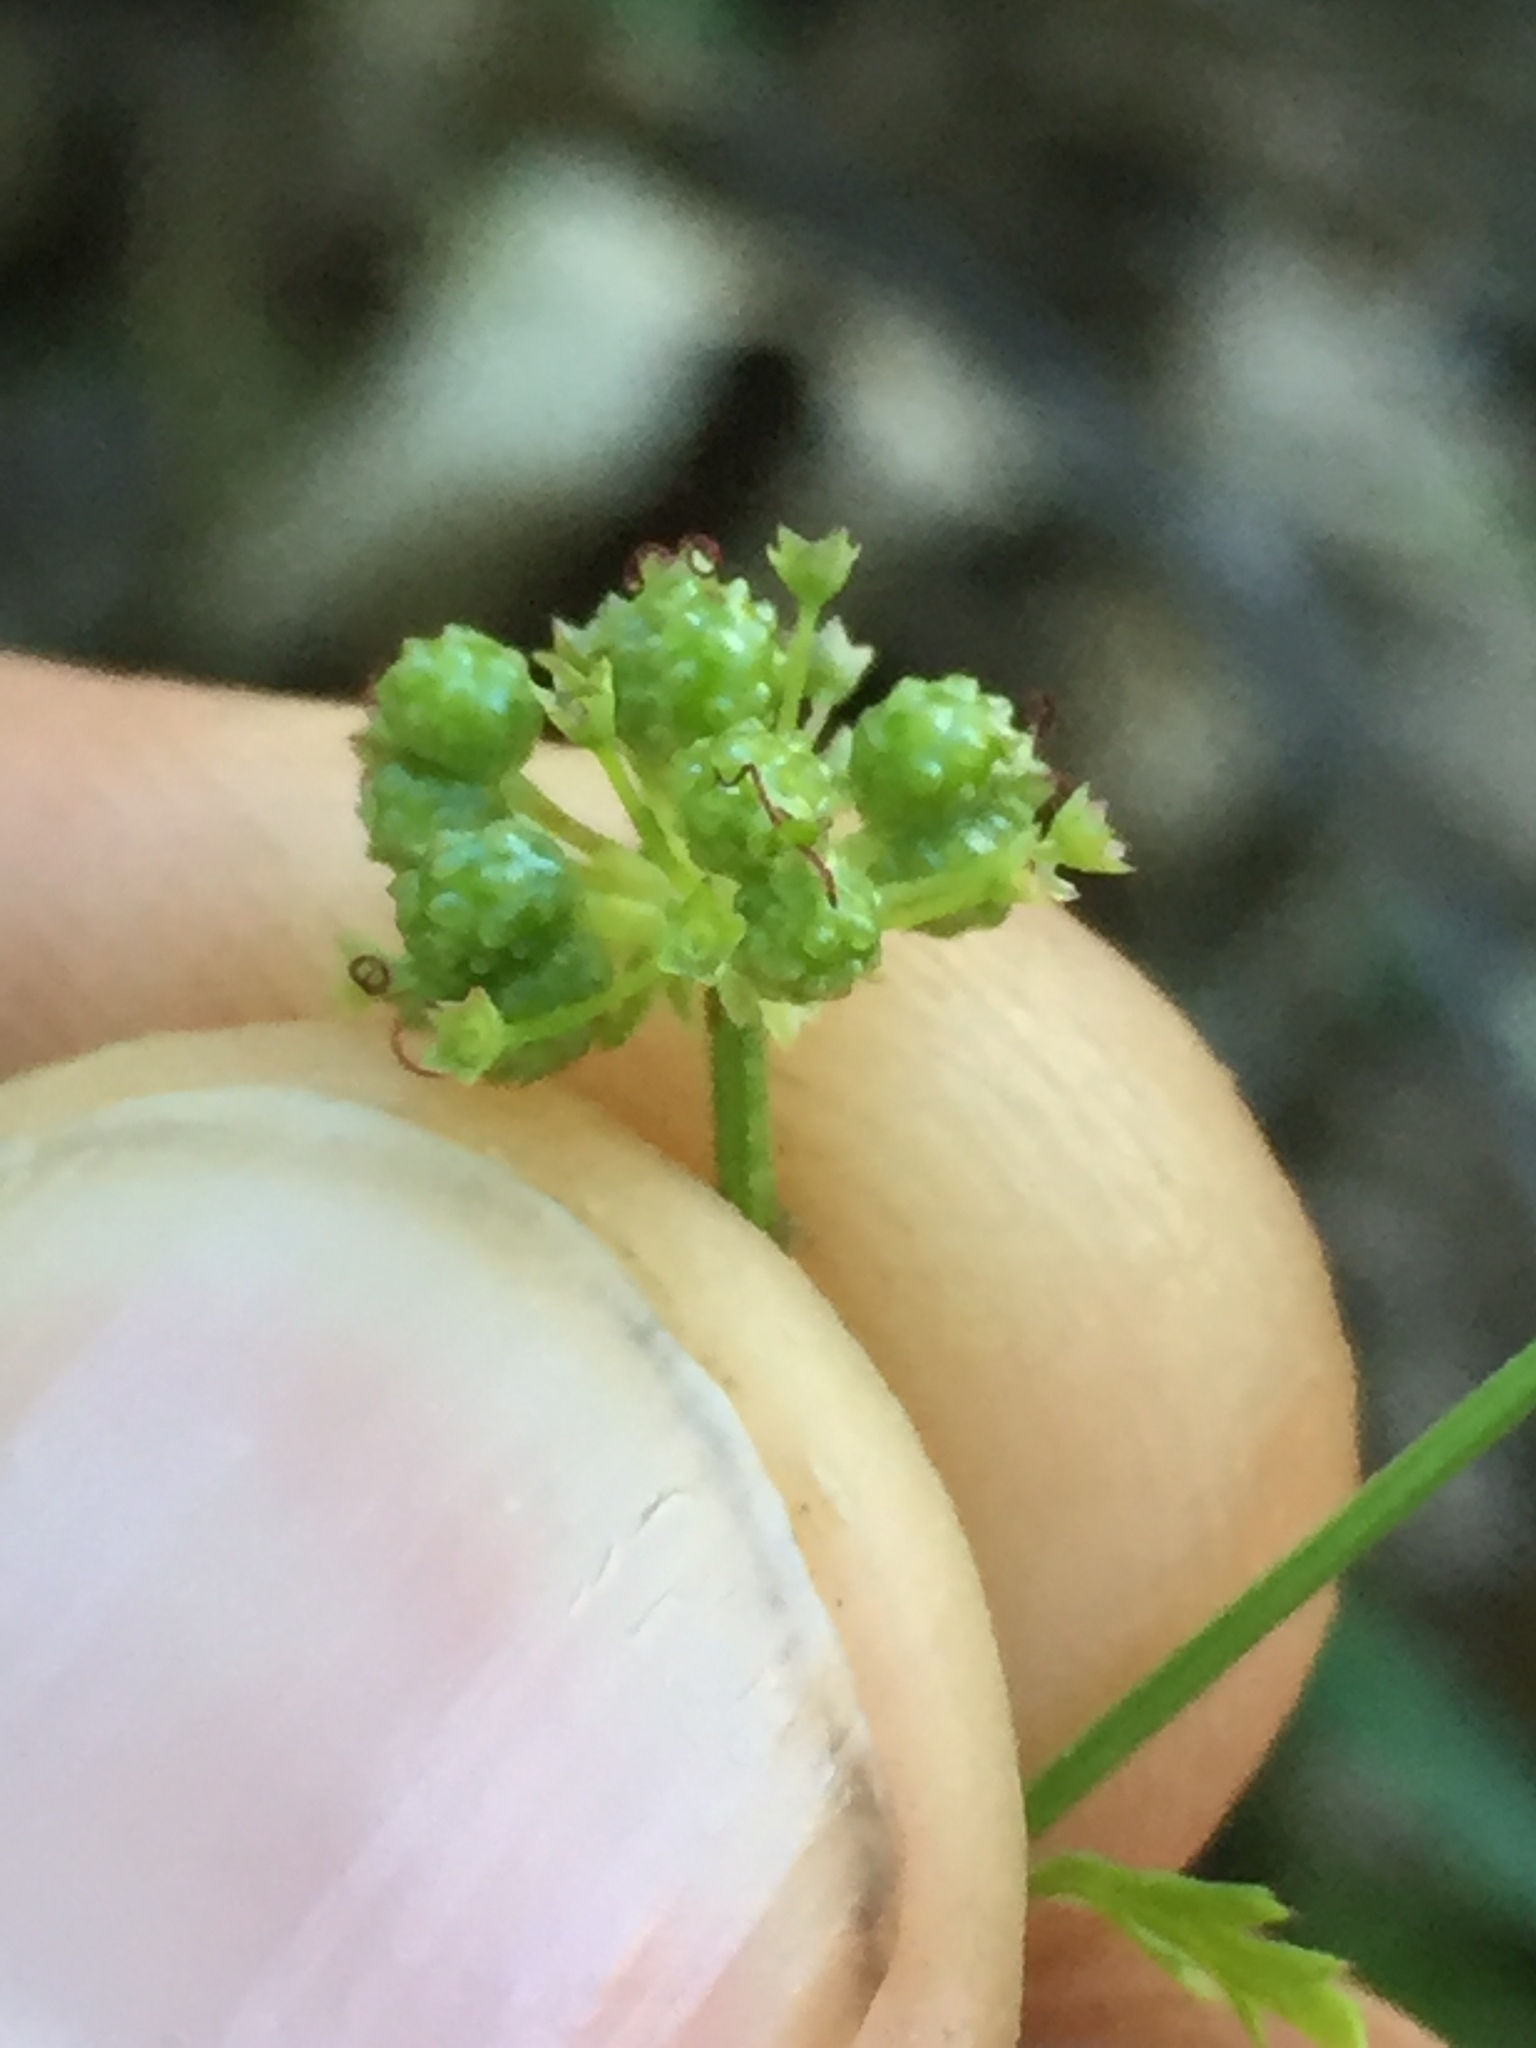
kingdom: Plantae
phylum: Tracheophyta
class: Magnoliopsida
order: Apiales
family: Apiaceae
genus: Sanicula
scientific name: Sanicula tuberosa
